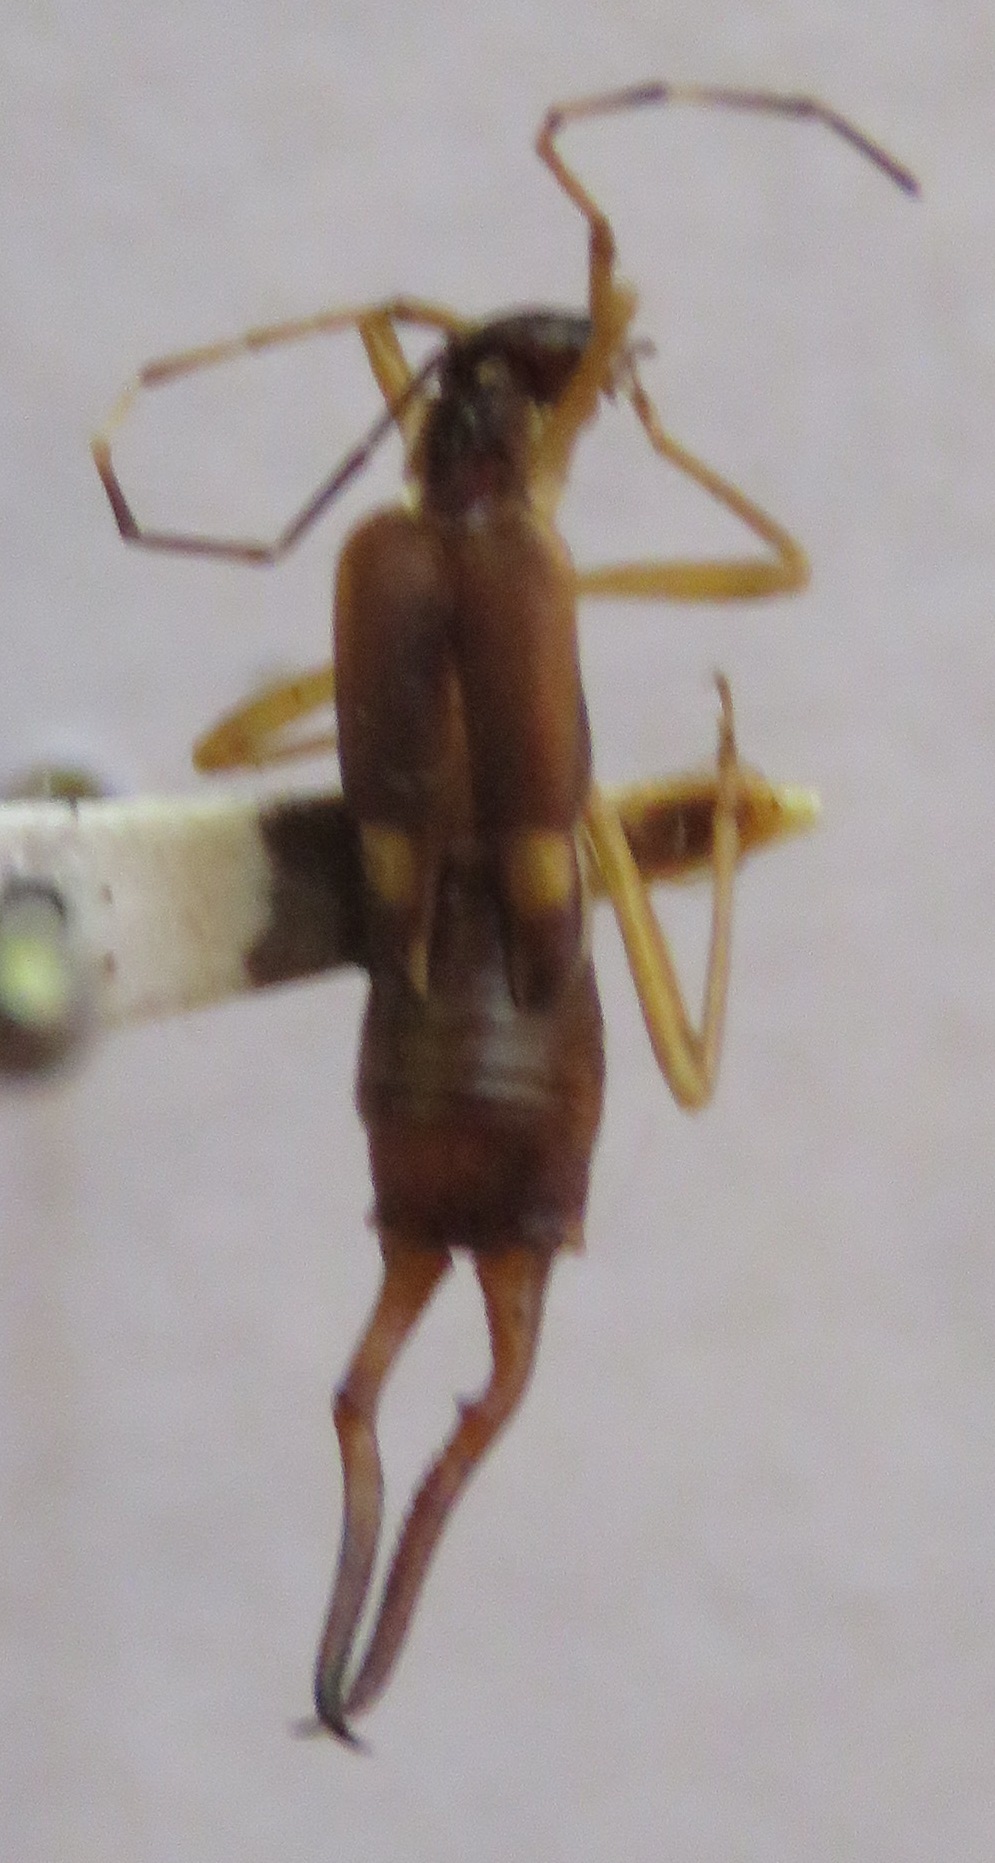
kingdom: Animalia
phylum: Arthropoda
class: Insecta
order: Dermaptera
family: Forficulidae
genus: Kleter
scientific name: Kleter americanus
